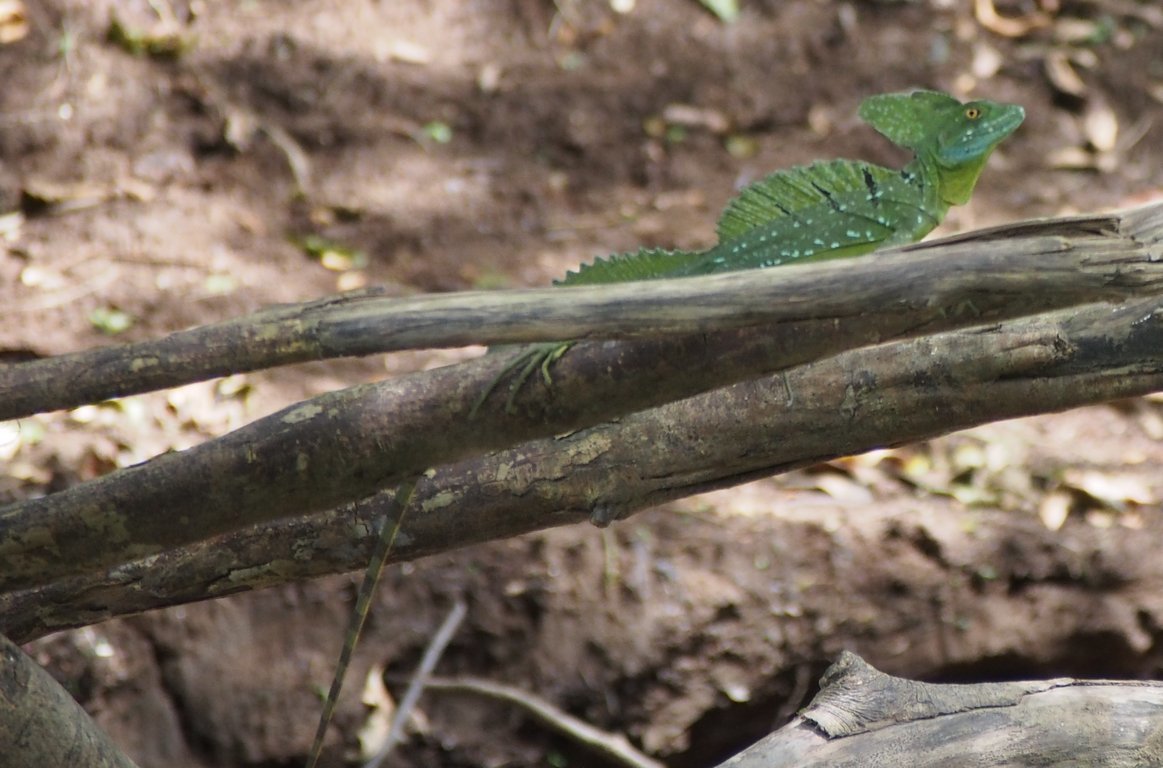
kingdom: Animalia
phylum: Chordata
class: Squamata
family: Corytophanidae
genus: Basiliscus
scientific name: Basiliscus plumifrons
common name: Green basilisk
